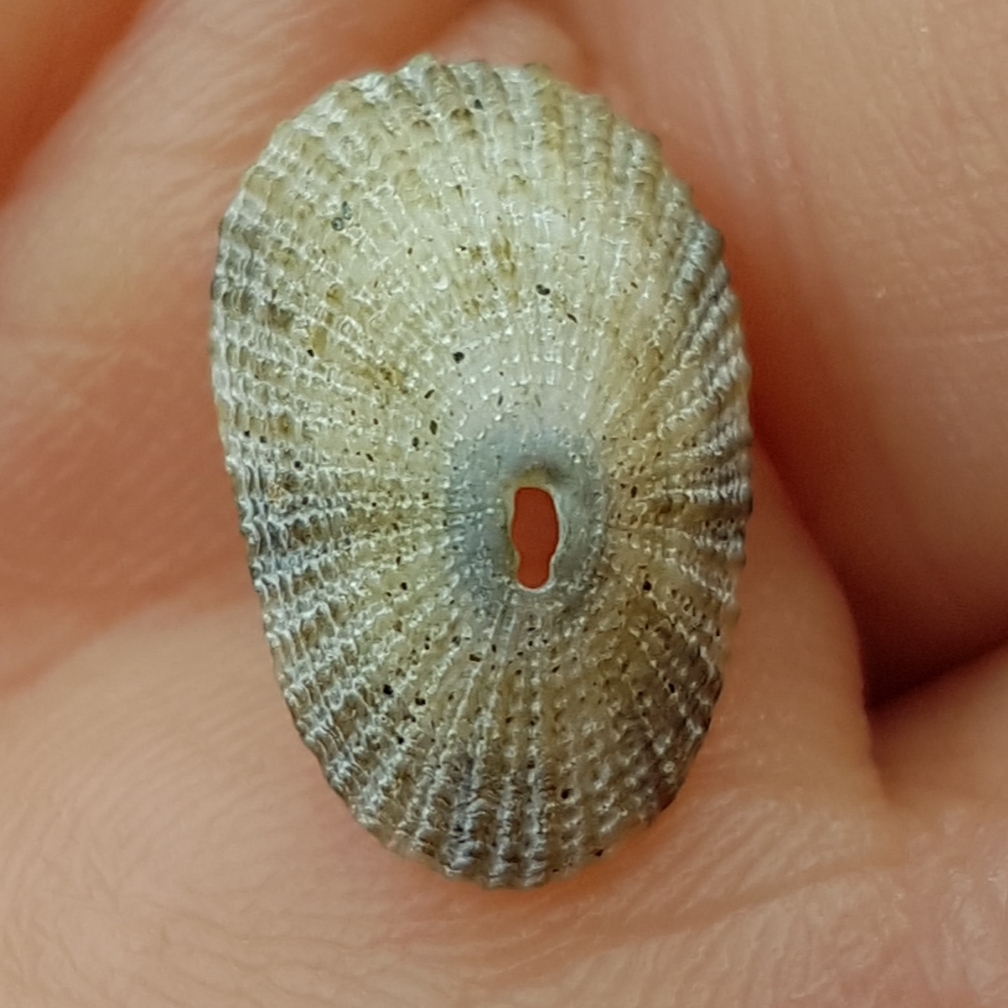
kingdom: Animalia
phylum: Mollusca
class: Gastropoda
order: Lepetellida
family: Fissurellidae
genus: Diodora
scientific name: Diodora gibberula
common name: Humped keyhole limpet
